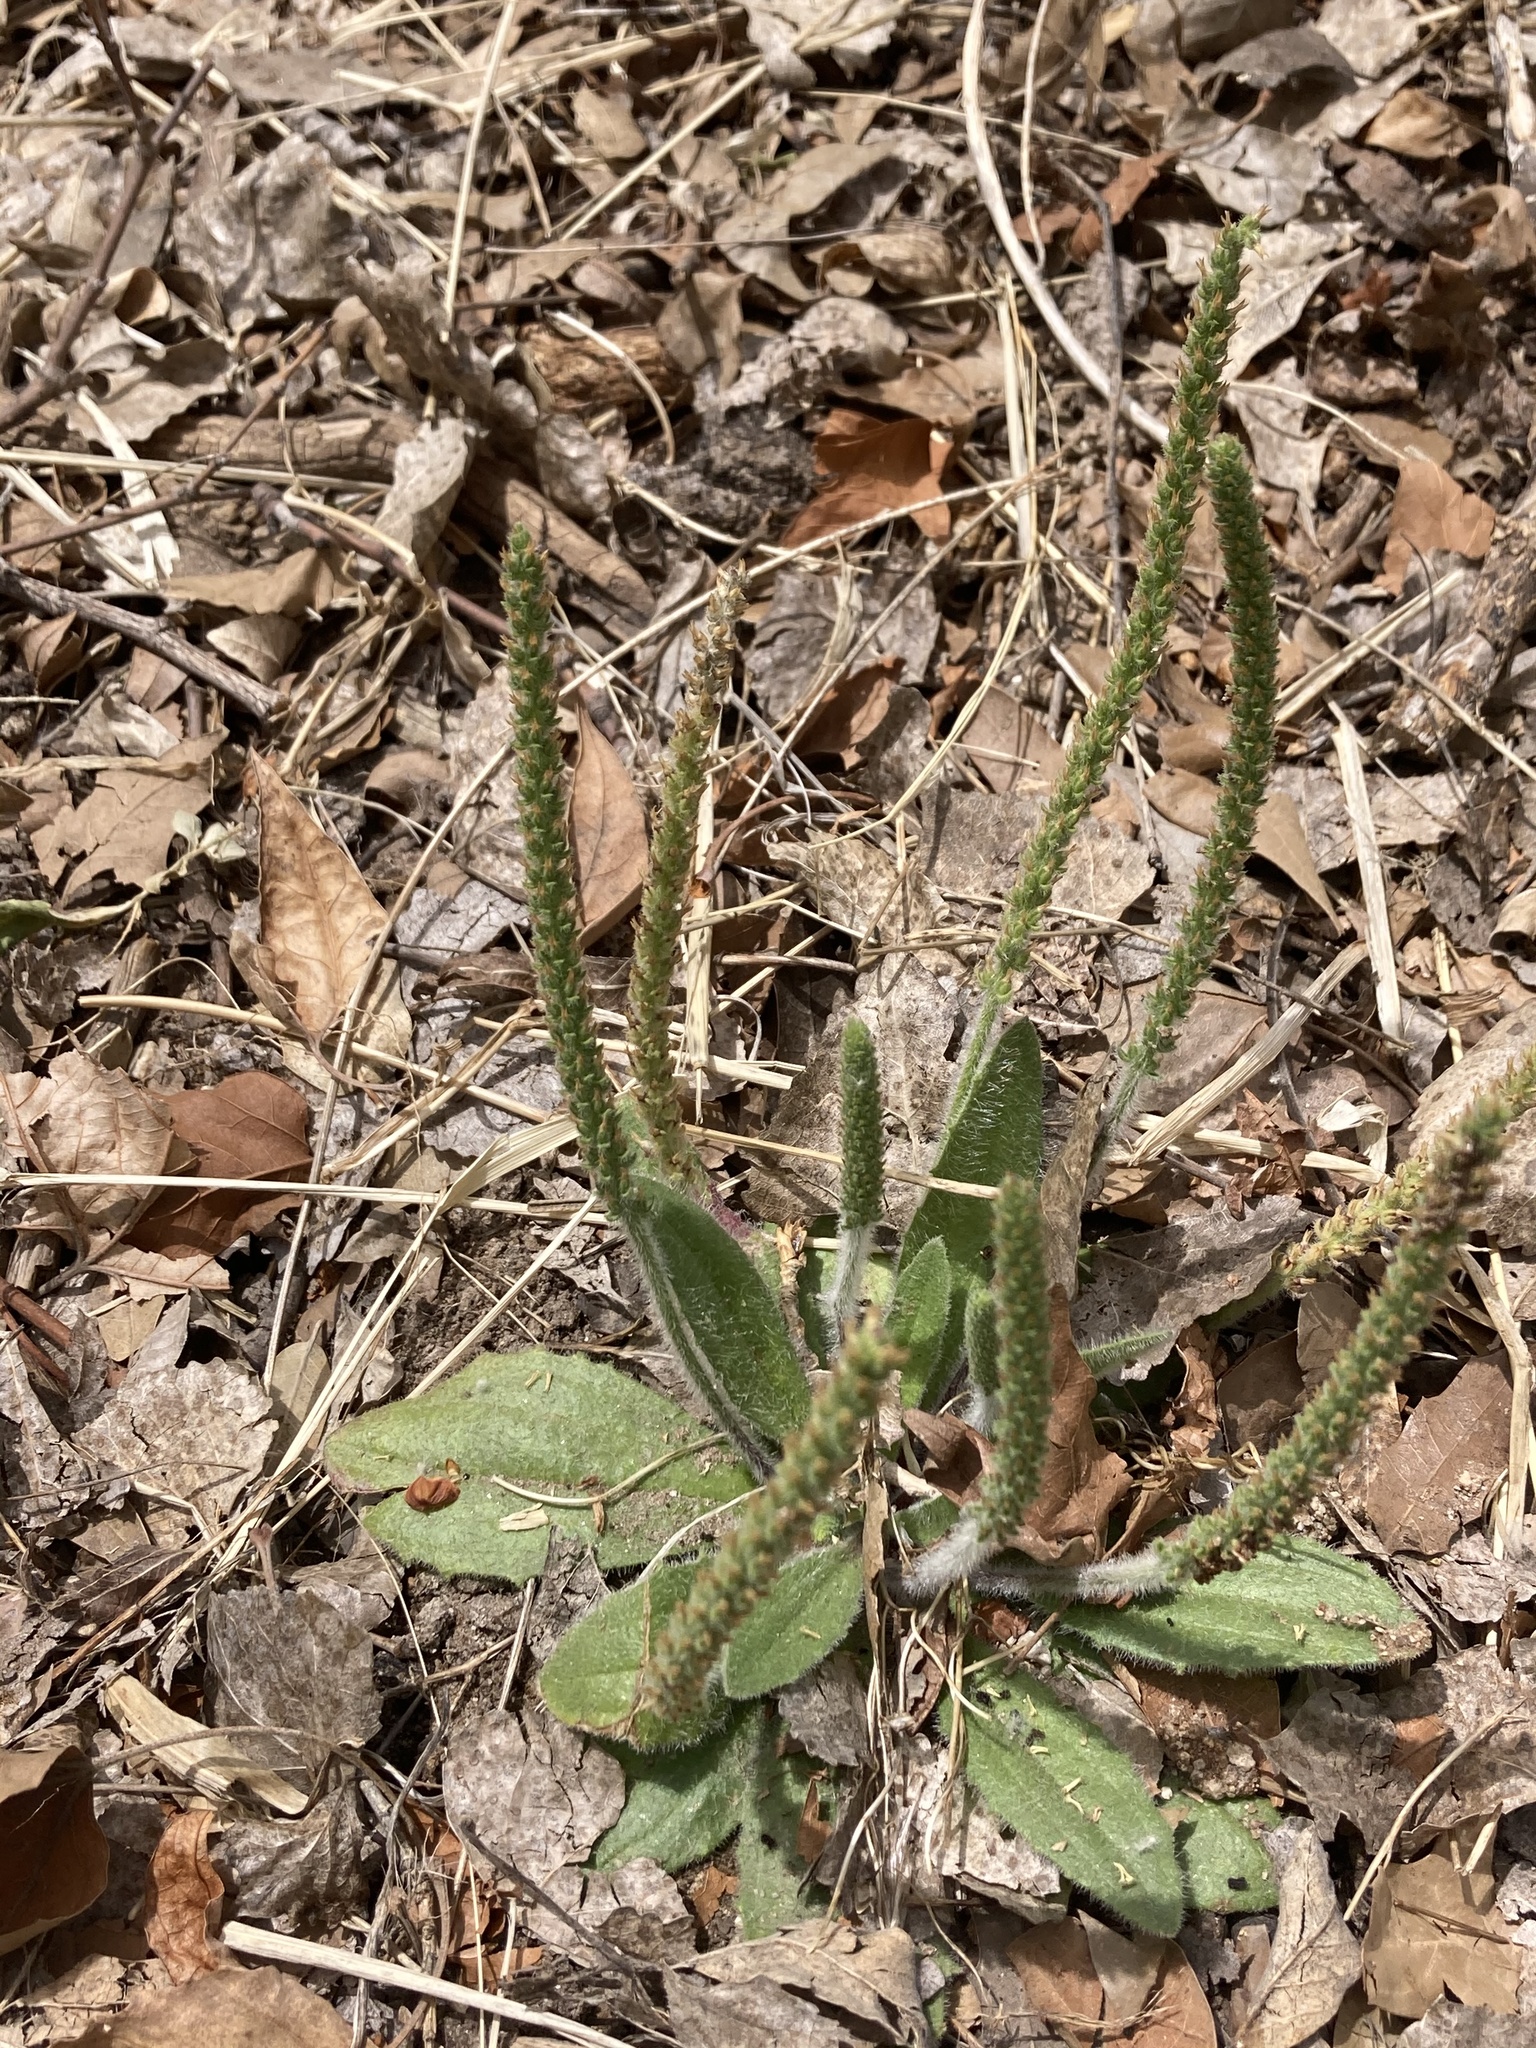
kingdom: Plantae
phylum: Tracheophyta
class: Magnoliopsida
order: Lamiales
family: Plantaginaceae
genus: Plantago
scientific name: Plantago virginica
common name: Hoary plantain
